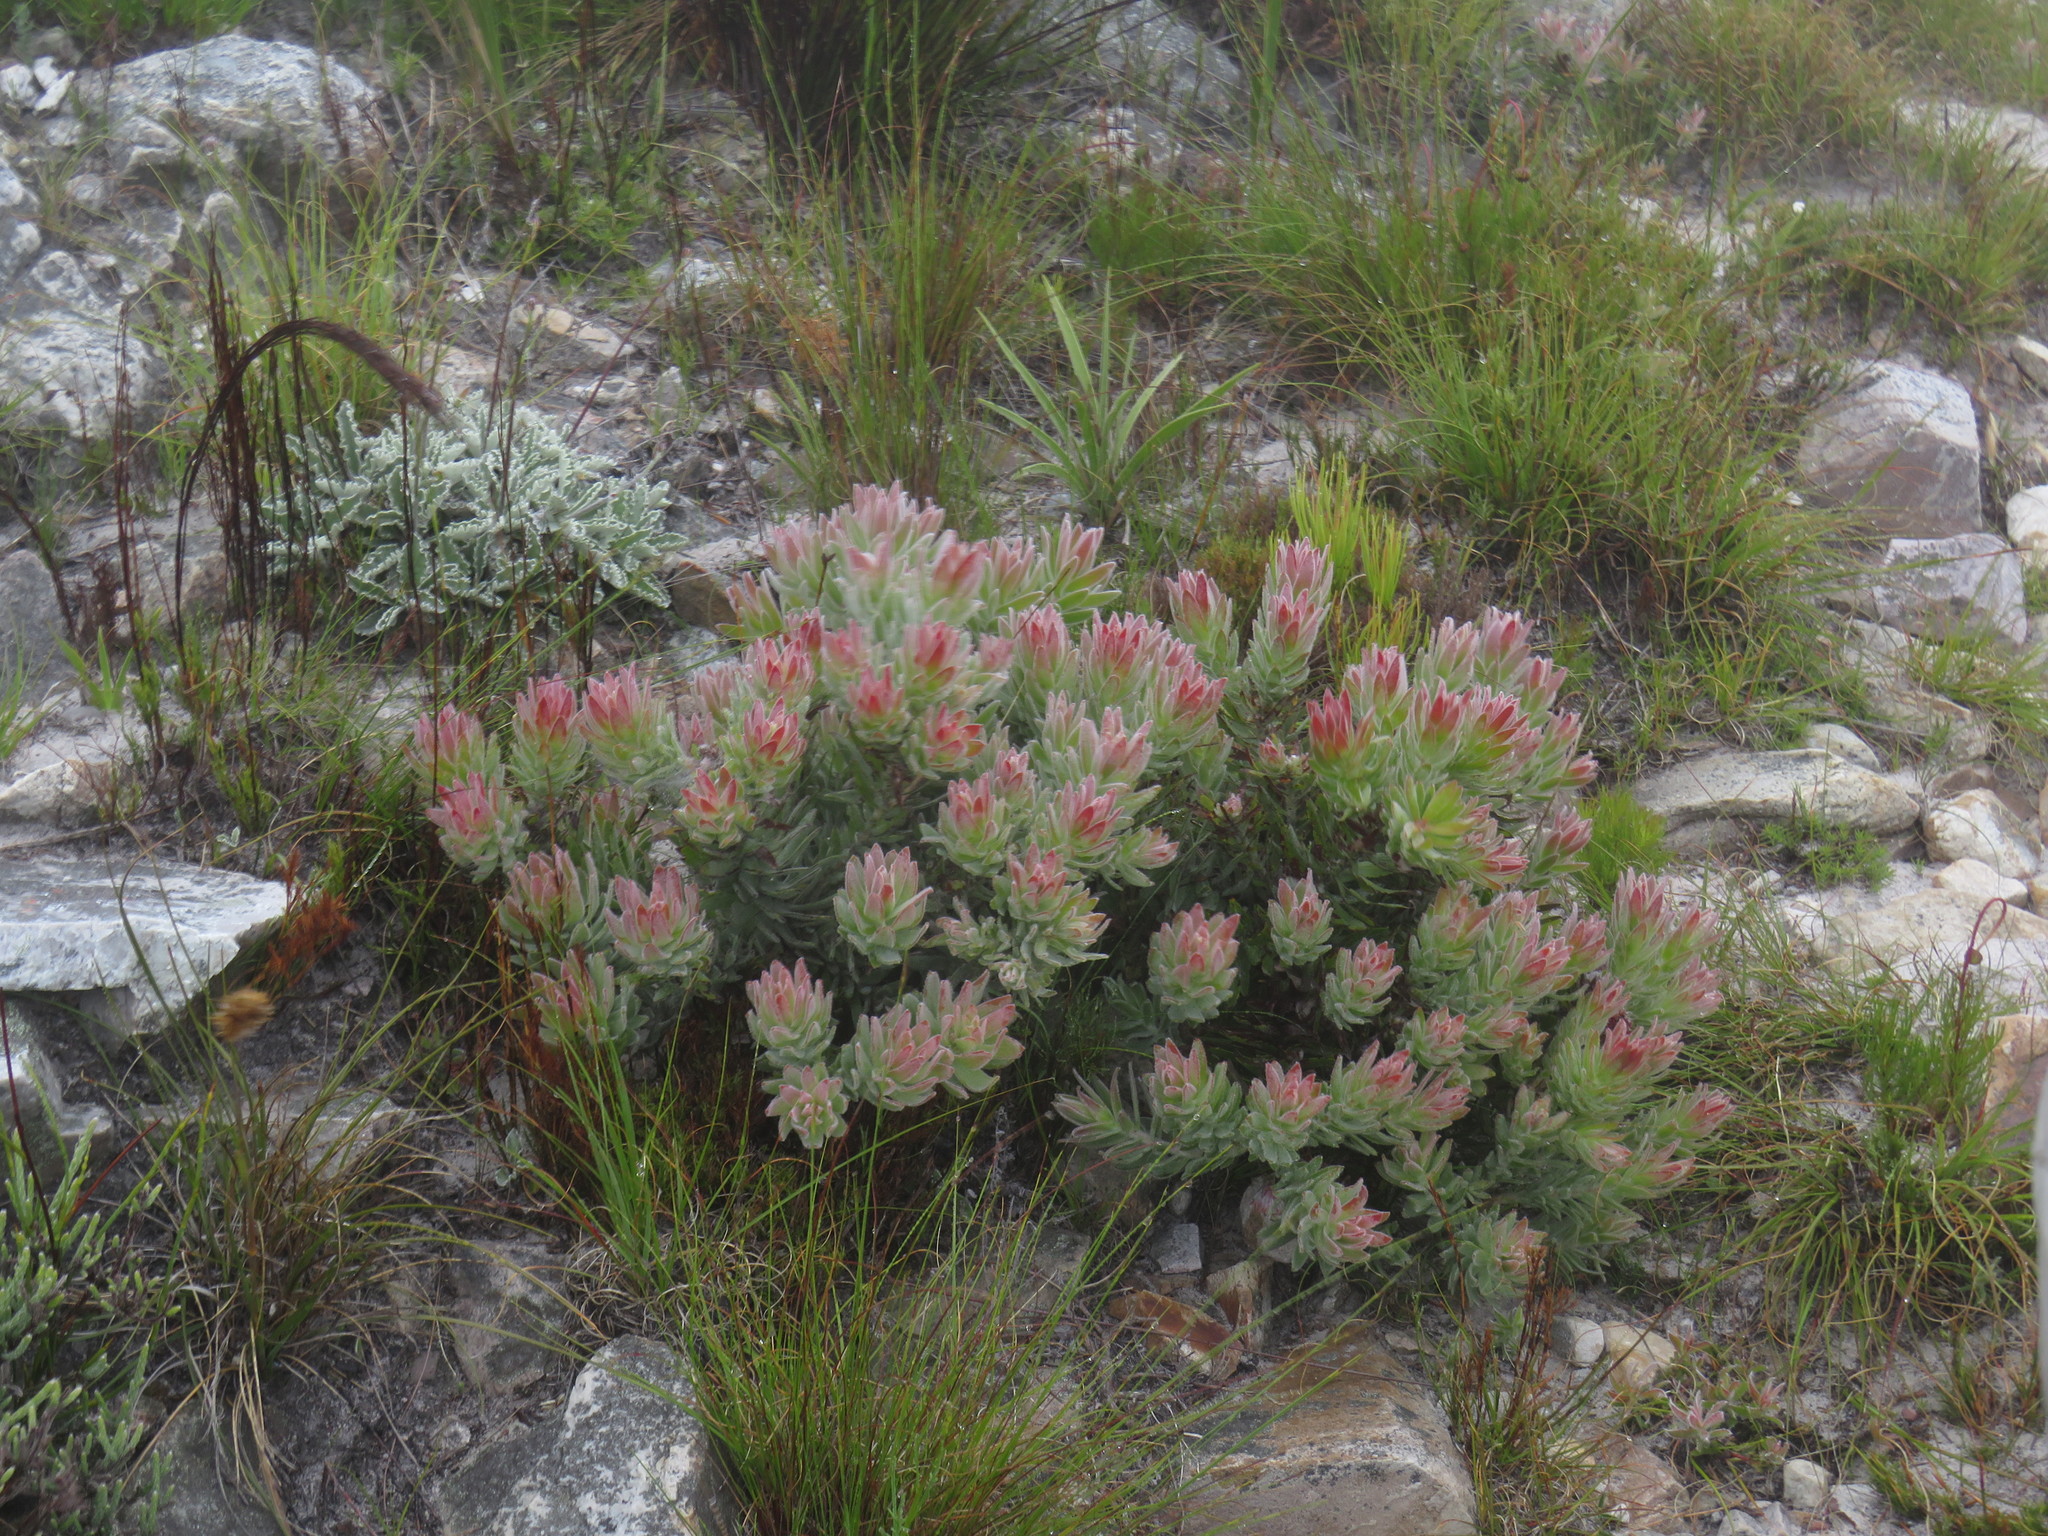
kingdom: Plantae
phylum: Tracheophyta
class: Magnoliopsida
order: Proteales
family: Proteaceae
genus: Leucospermum
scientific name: Leucospermum oleifolium
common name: Matches
